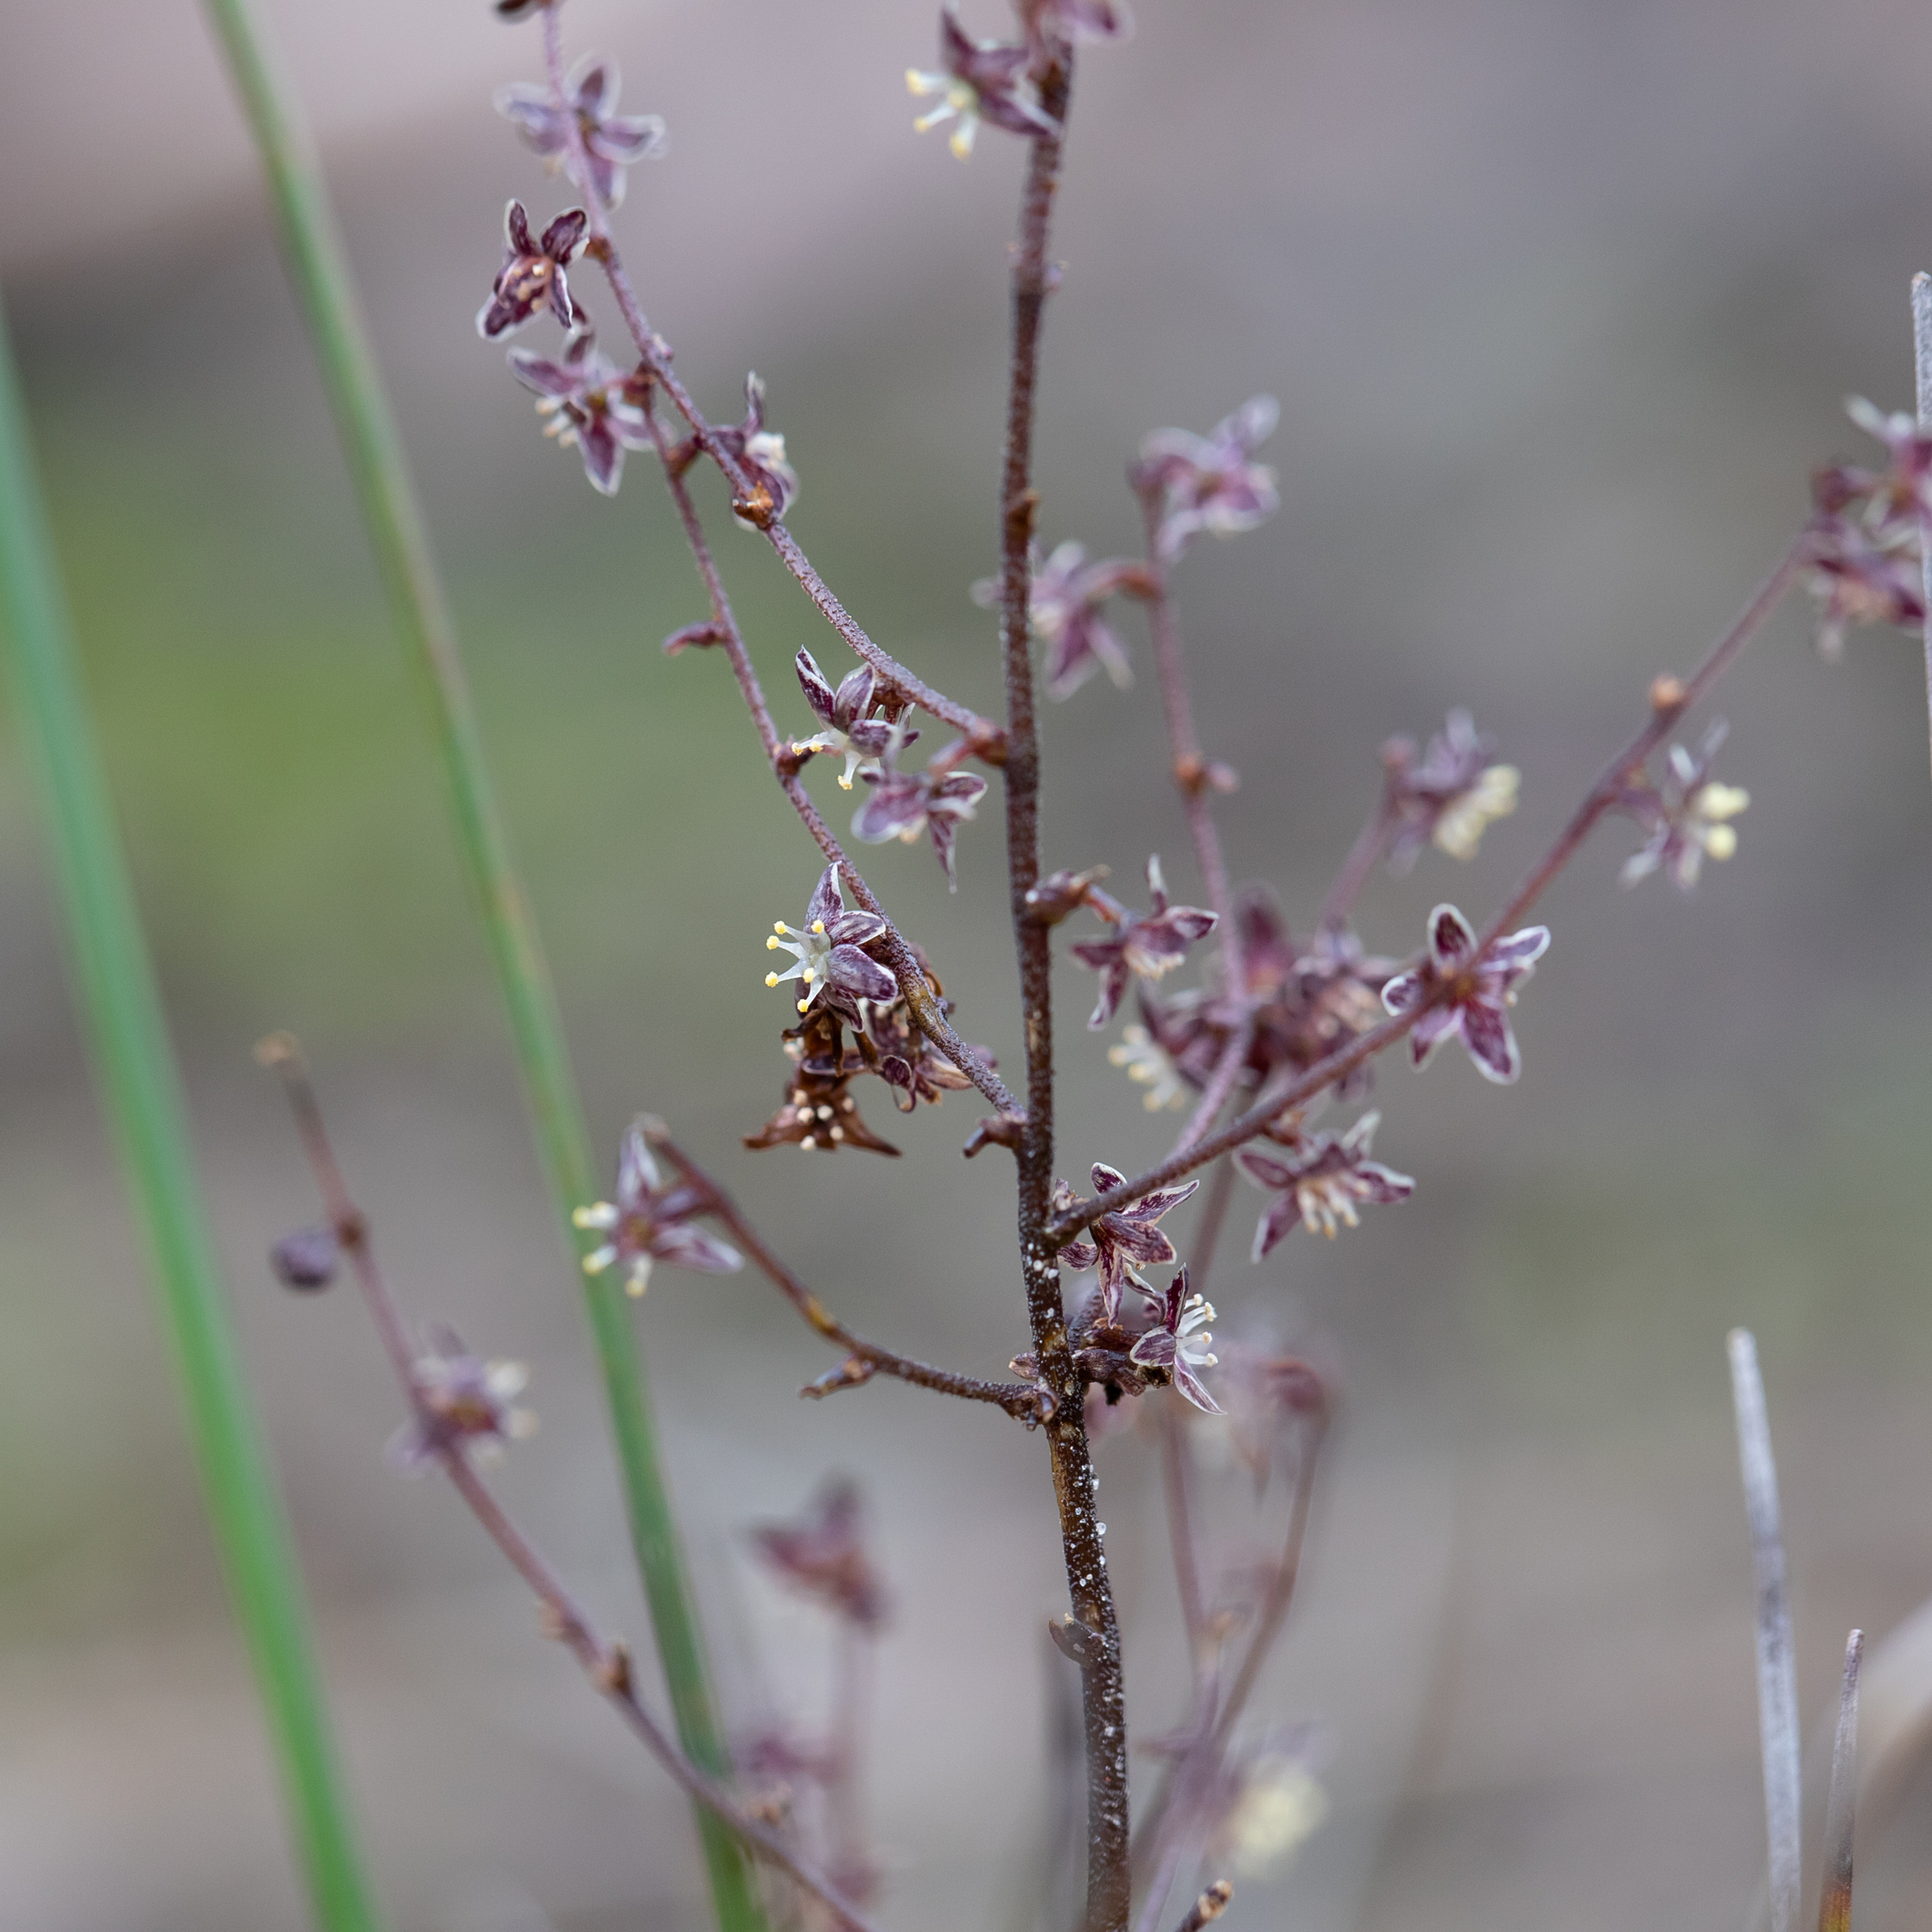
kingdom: Plantae
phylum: Tracheophyta
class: Liliopsida
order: Asparagales
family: Asparagaceae
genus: Lomandra
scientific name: Lomandra micrantha
